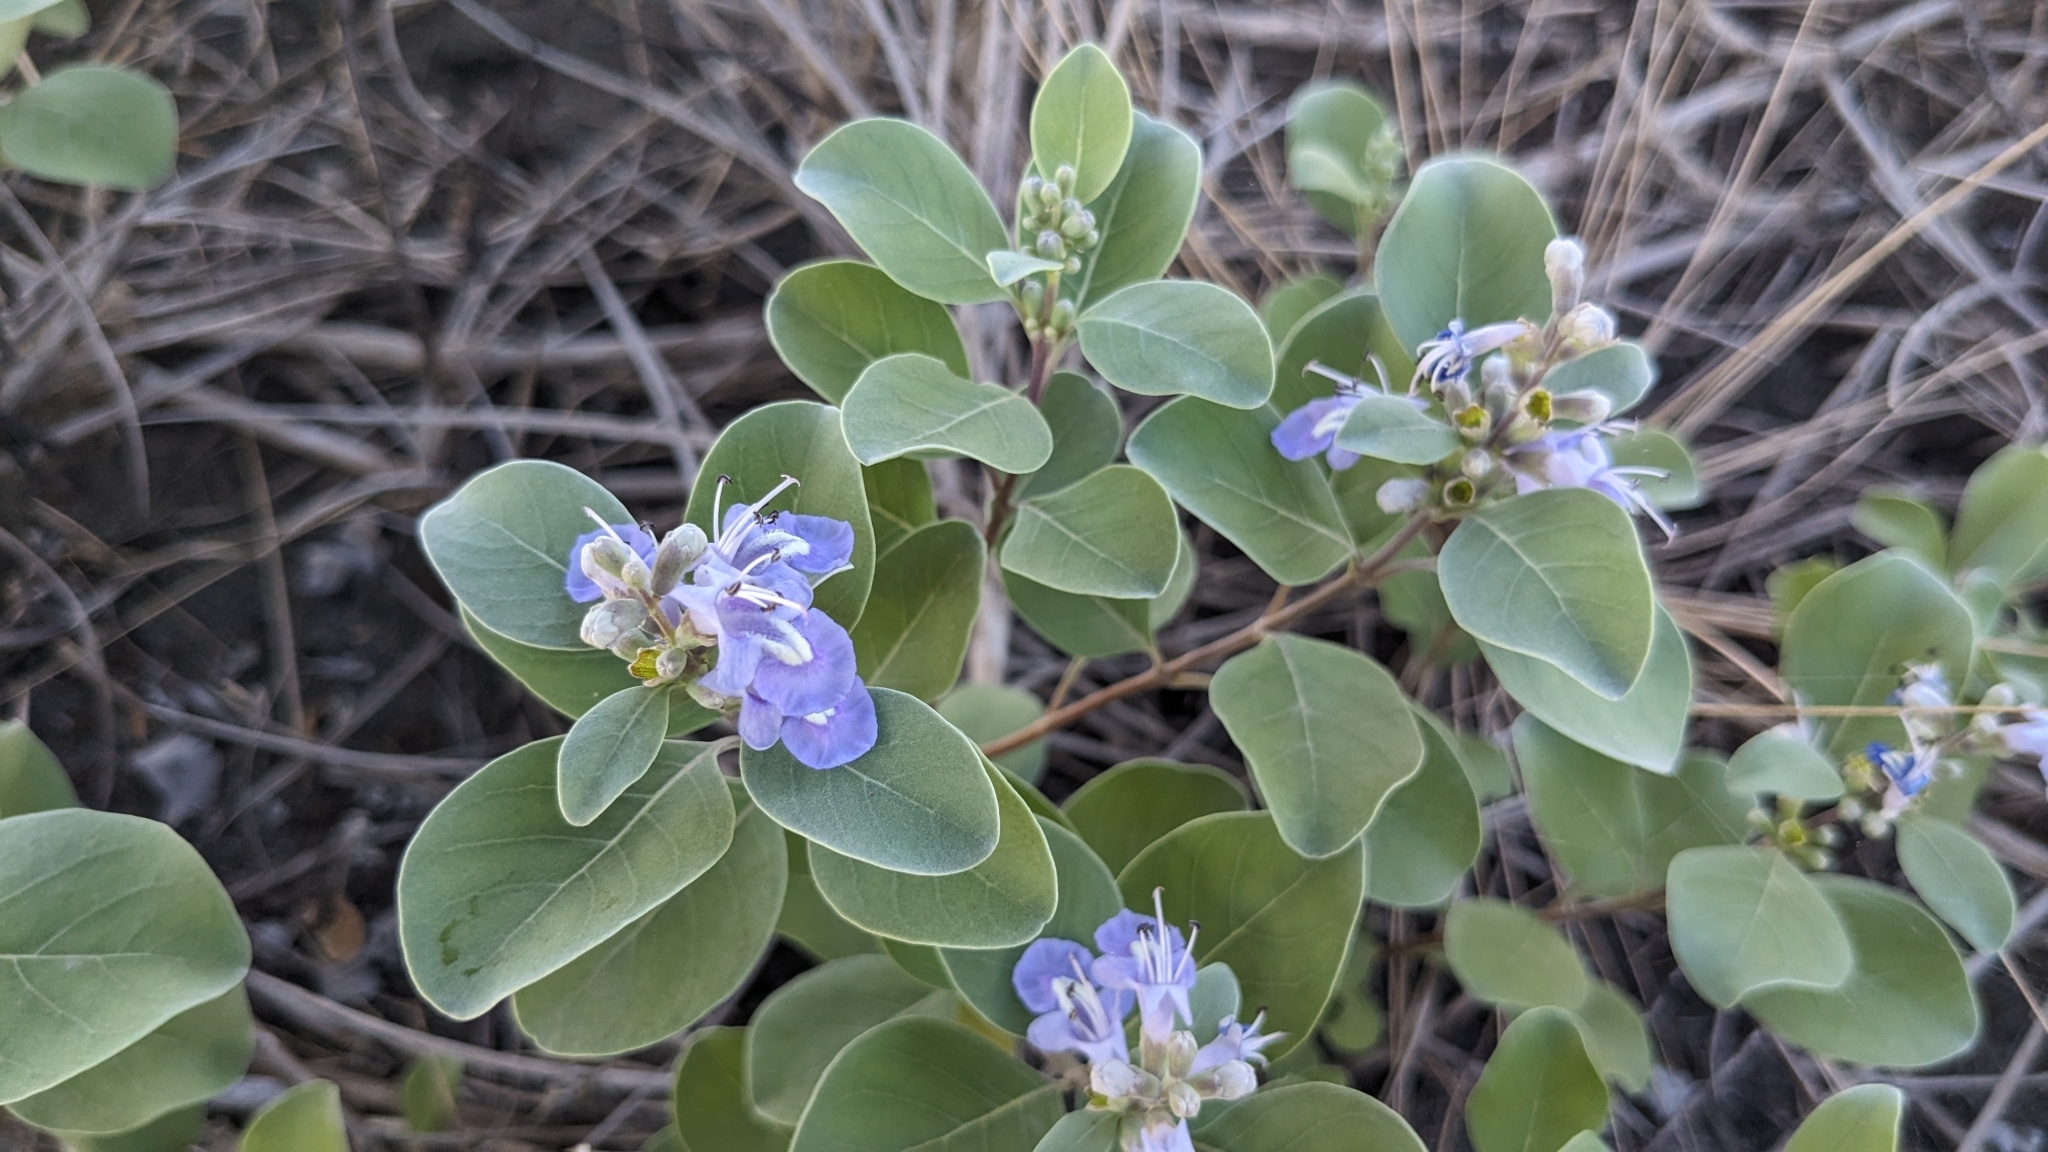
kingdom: Plantae
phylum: Tracheophyta
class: Magnoliopsida
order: Lamiales
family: Lamiaceae
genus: Vitex
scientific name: Vitex rotundifolia
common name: Beach vitex
